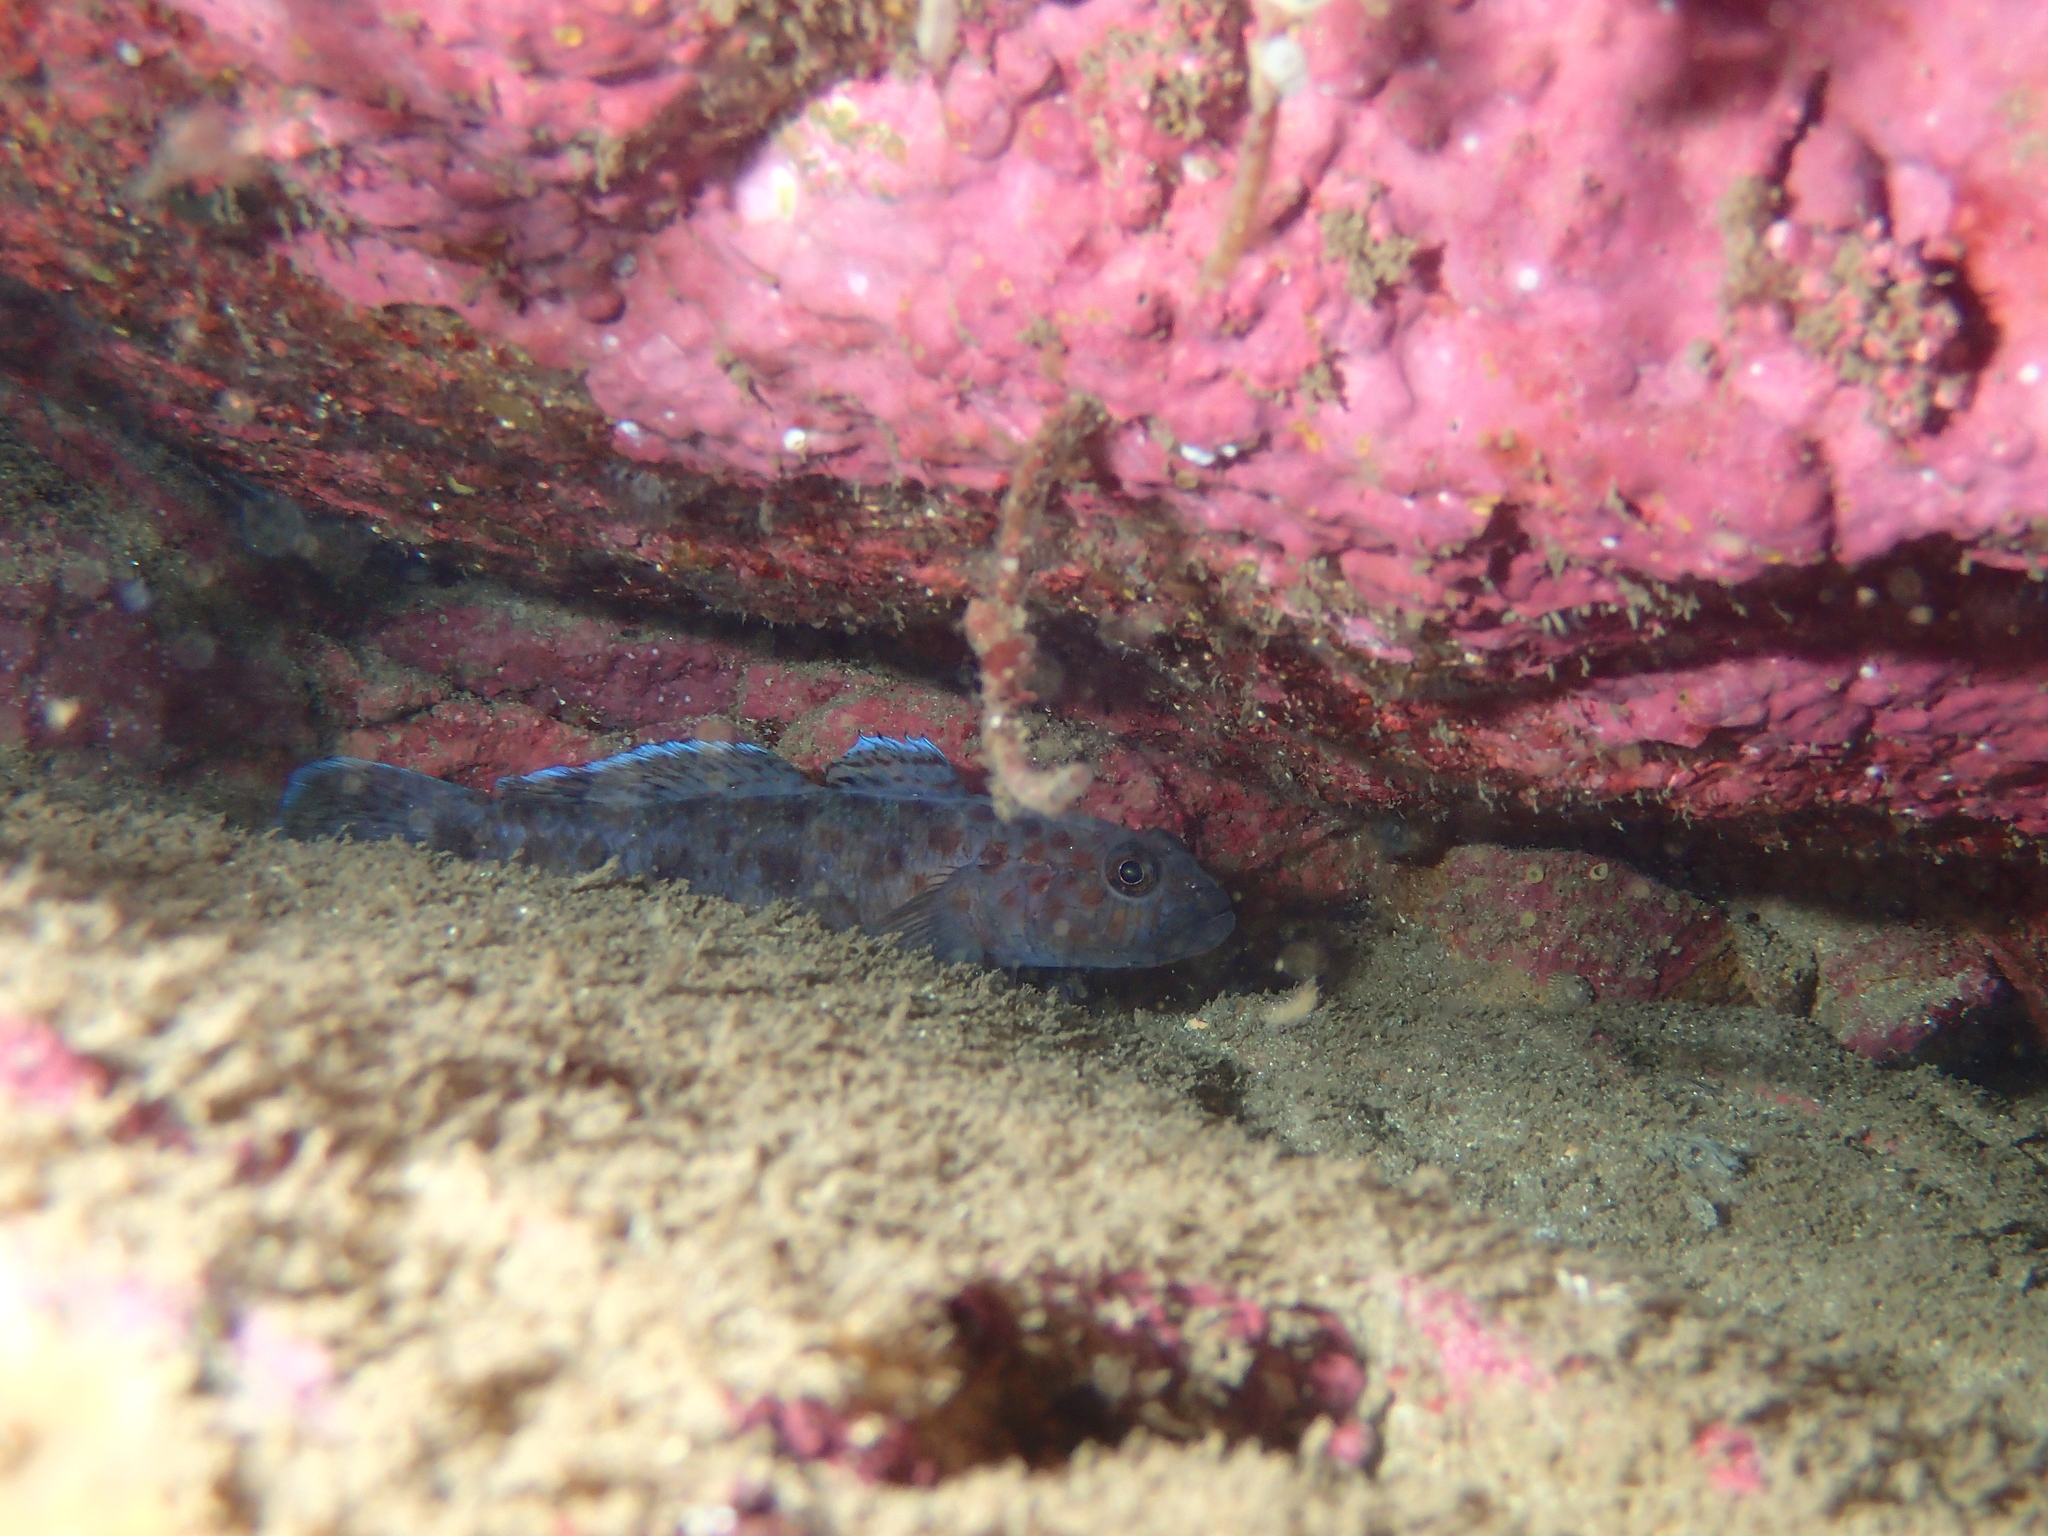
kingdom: Animalia
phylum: Chordata
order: Perciformes
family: Gobiidae
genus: Thorogobius
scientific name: Thorogobius ephippiatus
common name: Leopard-spotted goby
